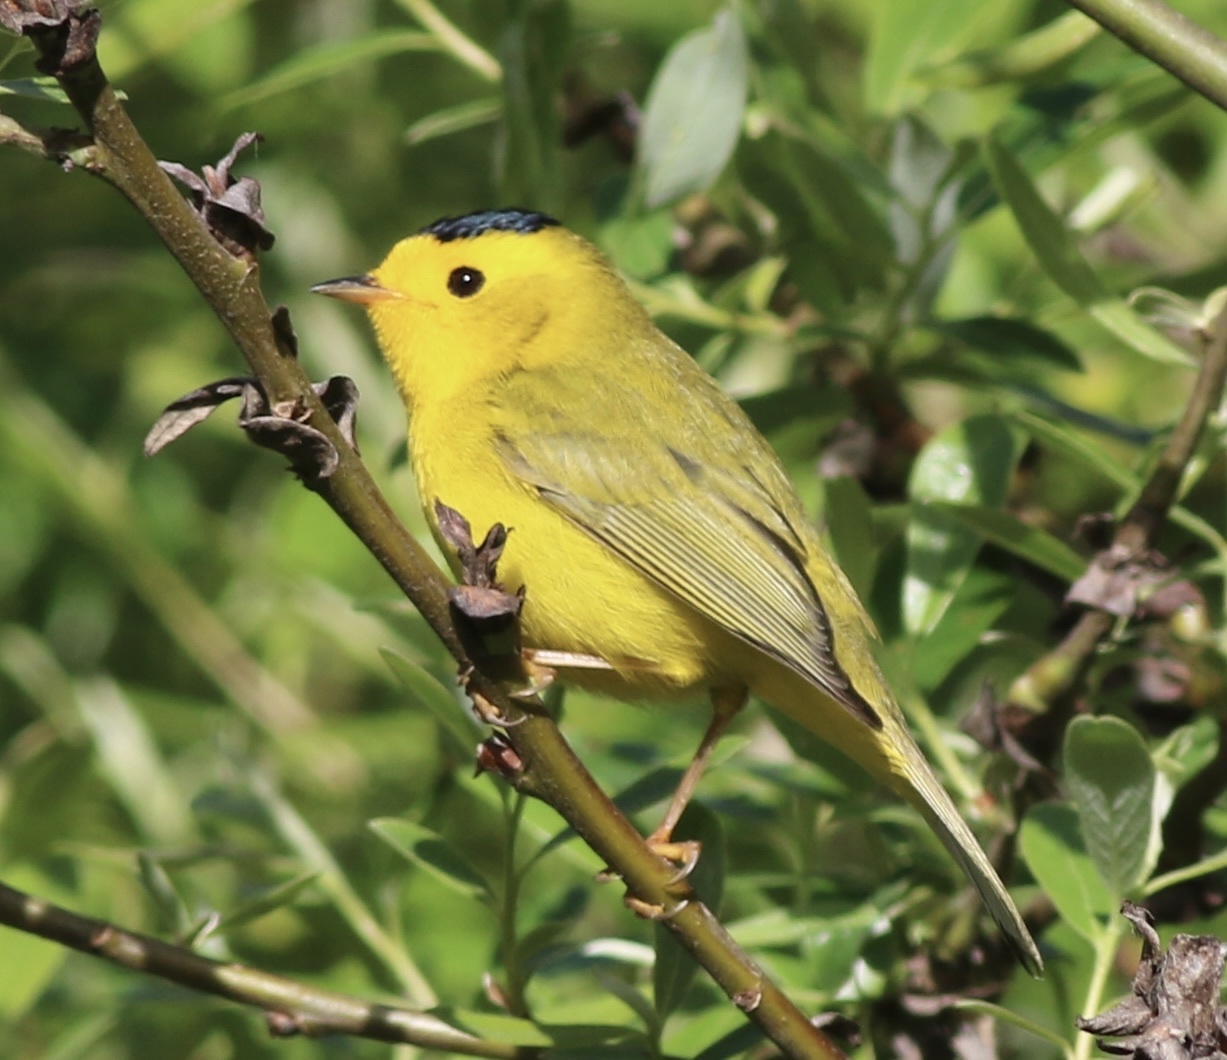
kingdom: Animalia
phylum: Chordata
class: Aves
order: Passeriformes
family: Parulidae
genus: Cardellina
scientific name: Cardellina pusilla
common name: Wilson's warbler
